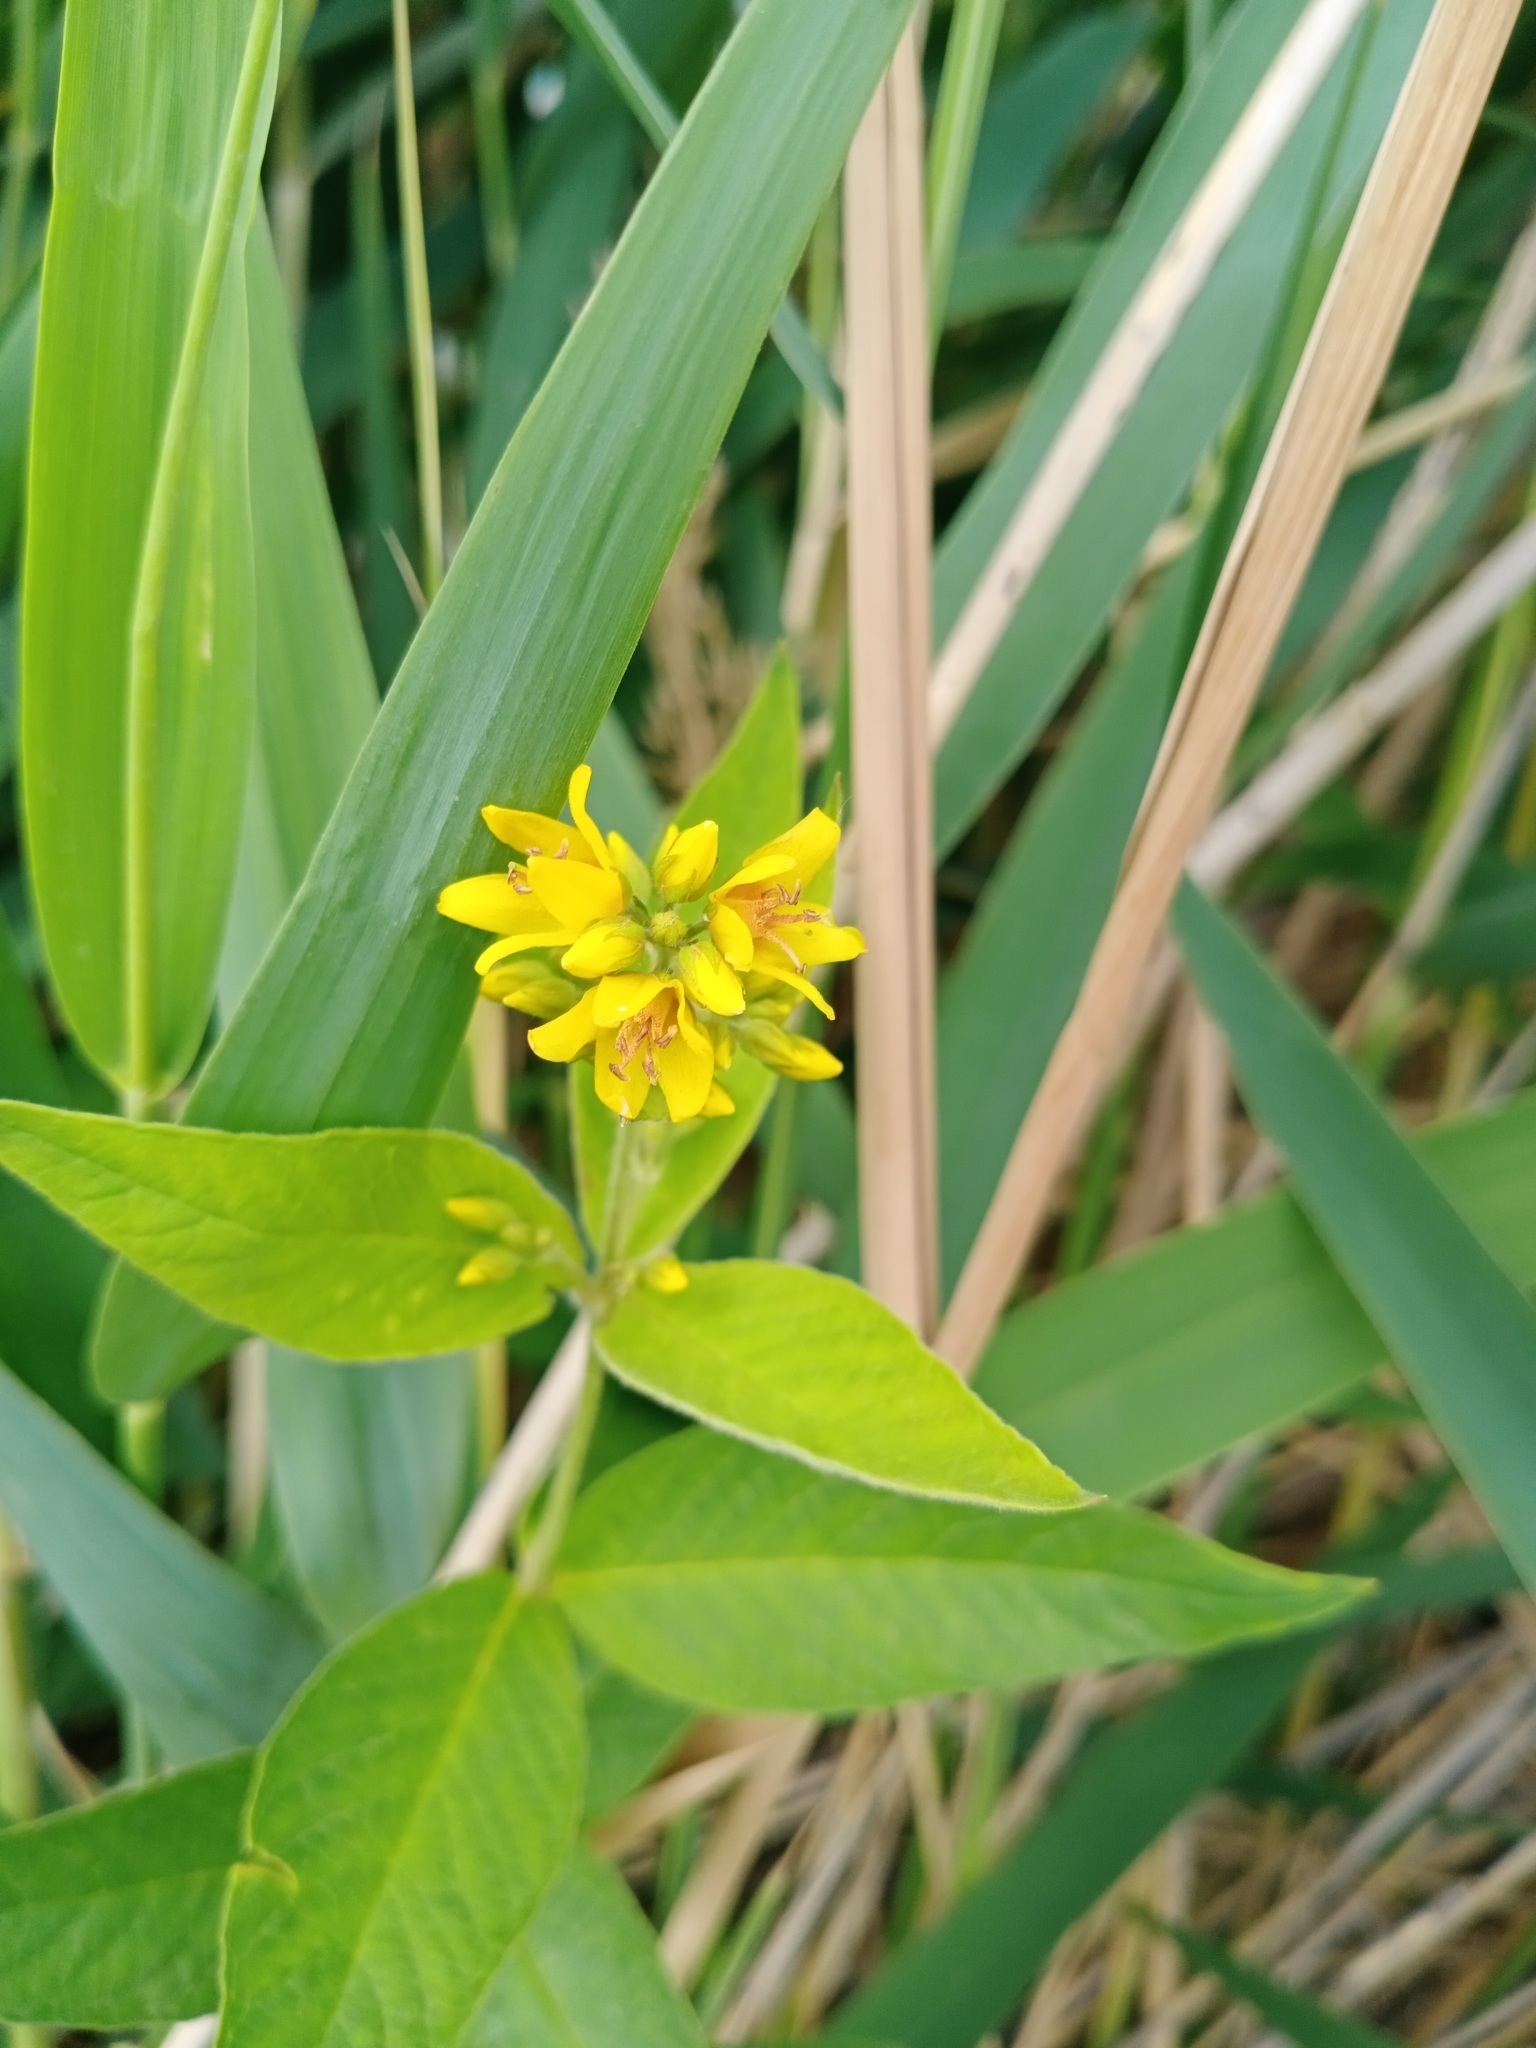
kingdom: Plantae
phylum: Tracheophyta
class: Magnoliopsida
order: Ericales
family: Primulaceae
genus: Lysimachia
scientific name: Lysimachia vulgaris
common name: Yellow loosestrife
